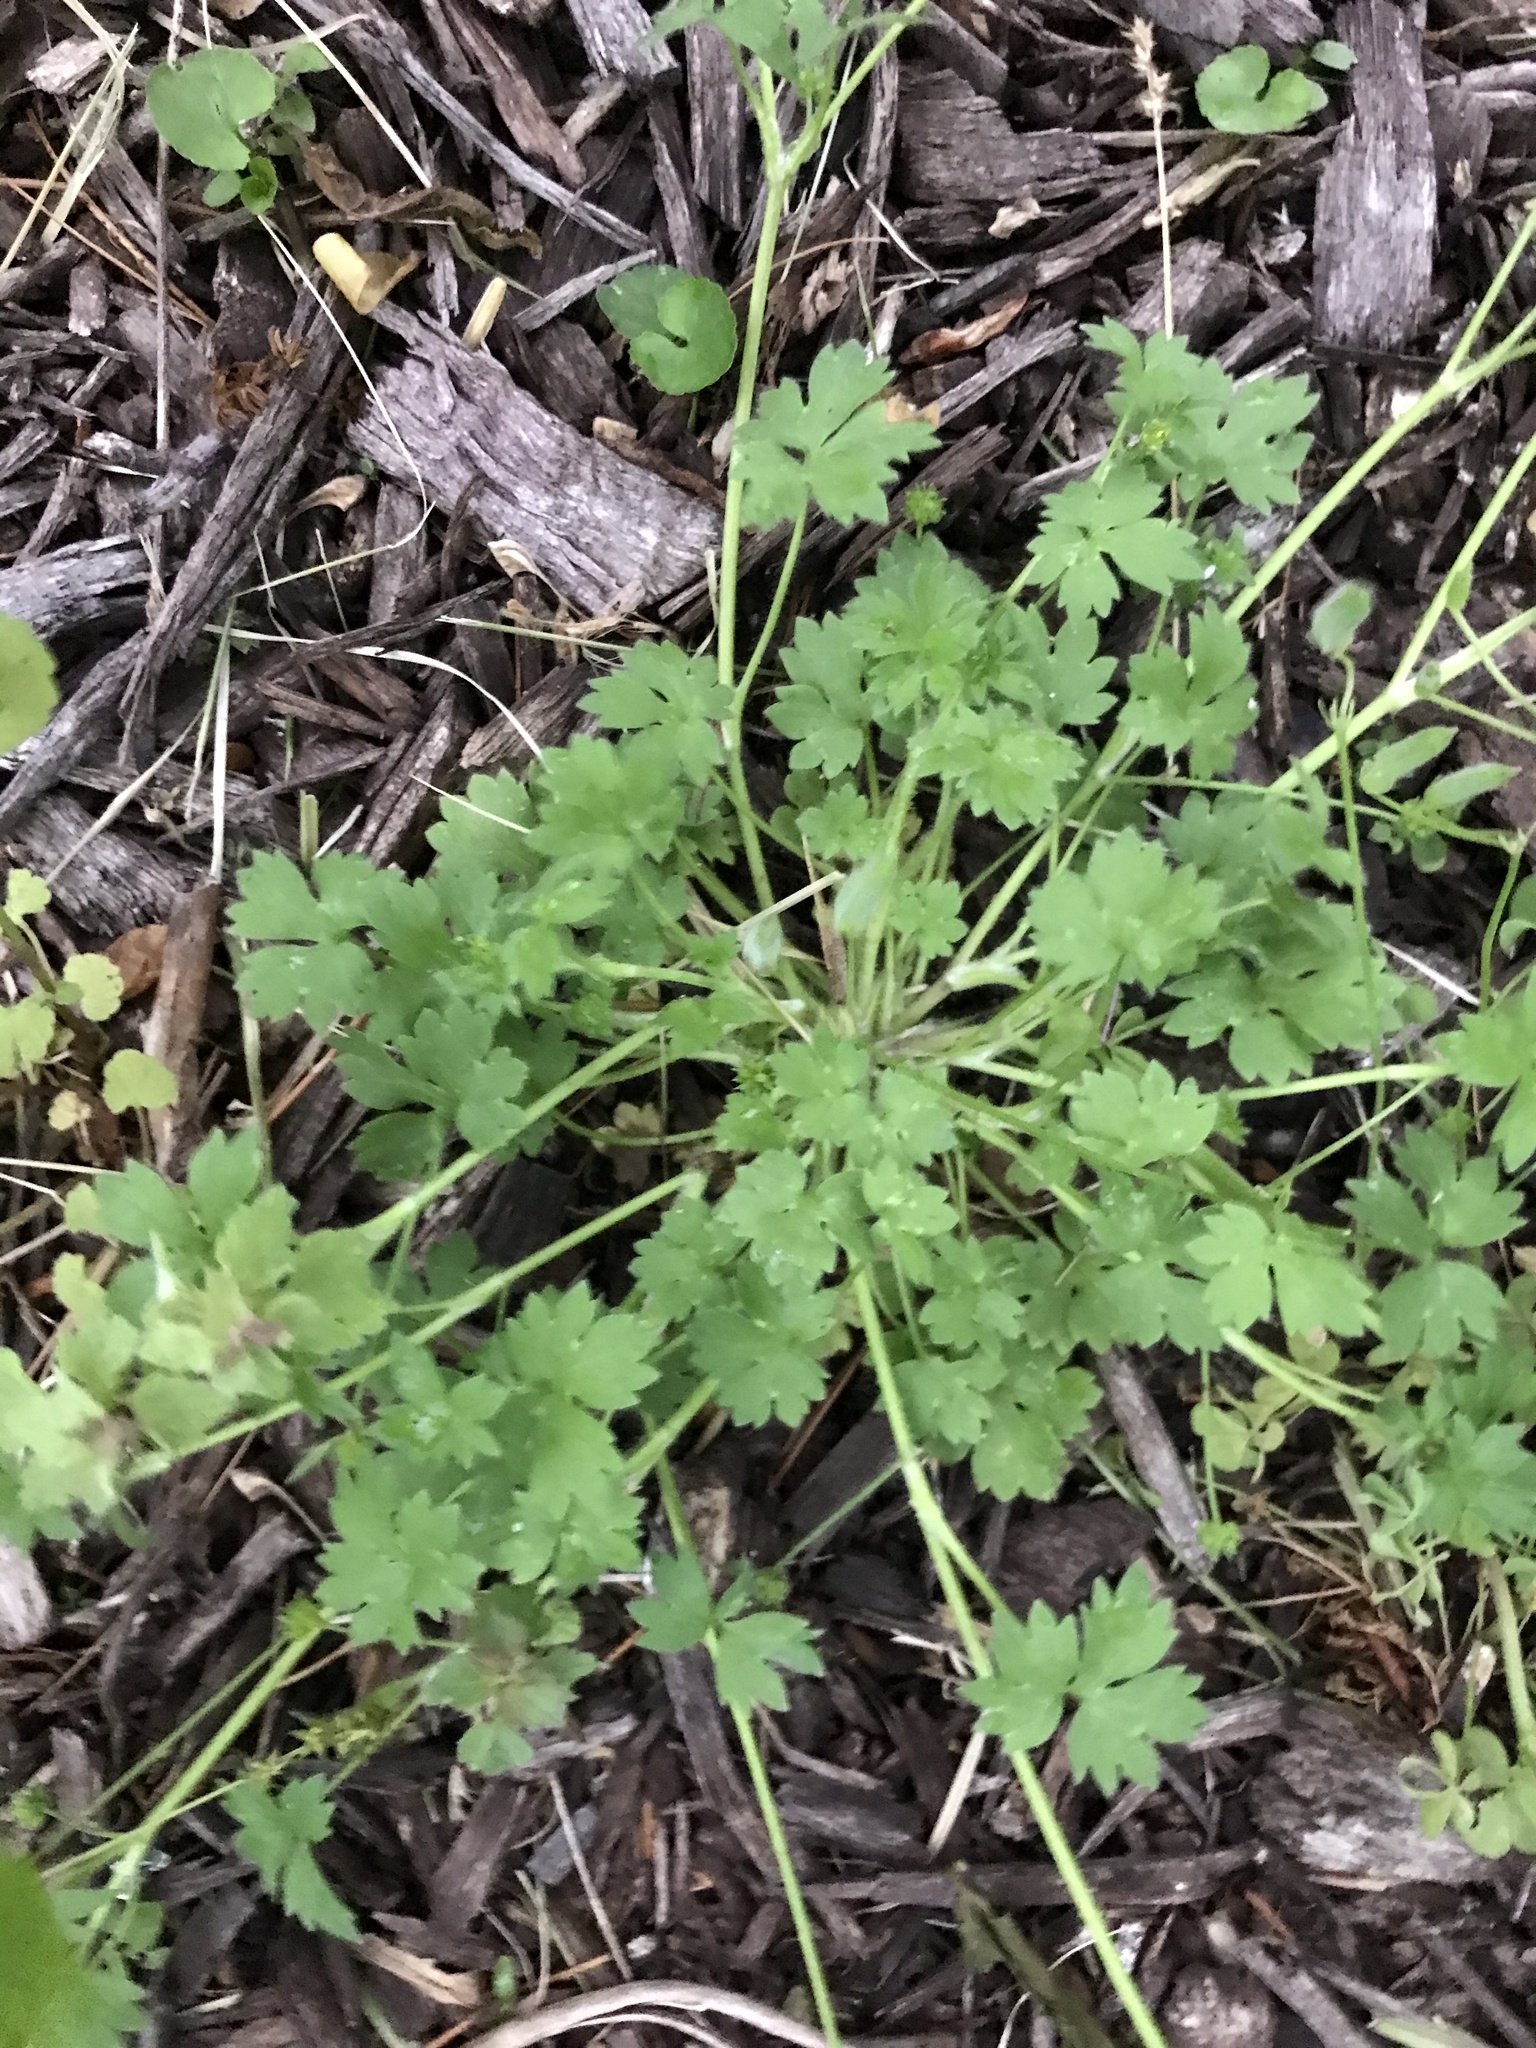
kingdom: Plantae
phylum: Tracheophyta
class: Magnoliopsida
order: Ranunculales
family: Ranunculaceae
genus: Ranunculus
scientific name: Ranunculus parviflorus
